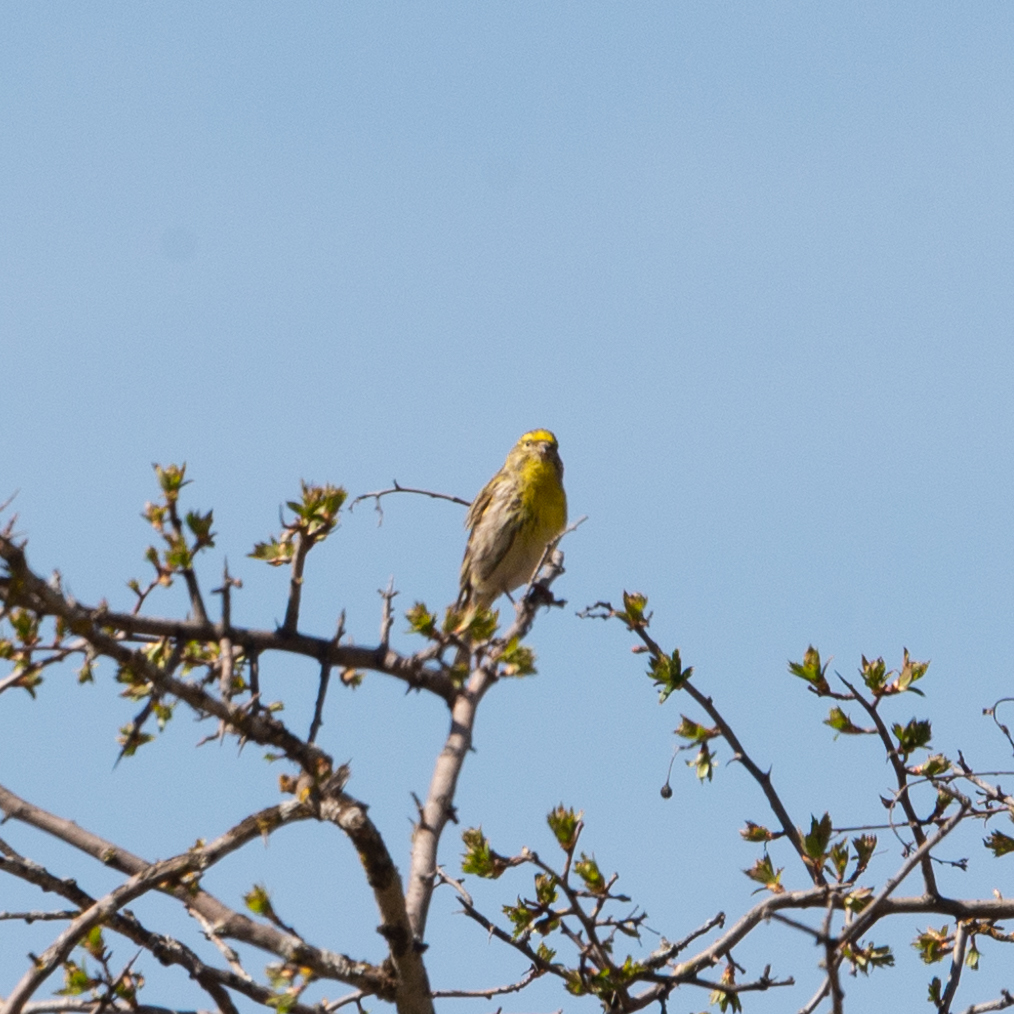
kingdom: Animalia
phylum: Chordata
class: Aves
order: Passeriformes
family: Fringillidae
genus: Serinus
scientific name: Serinus serinus
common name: European serin
